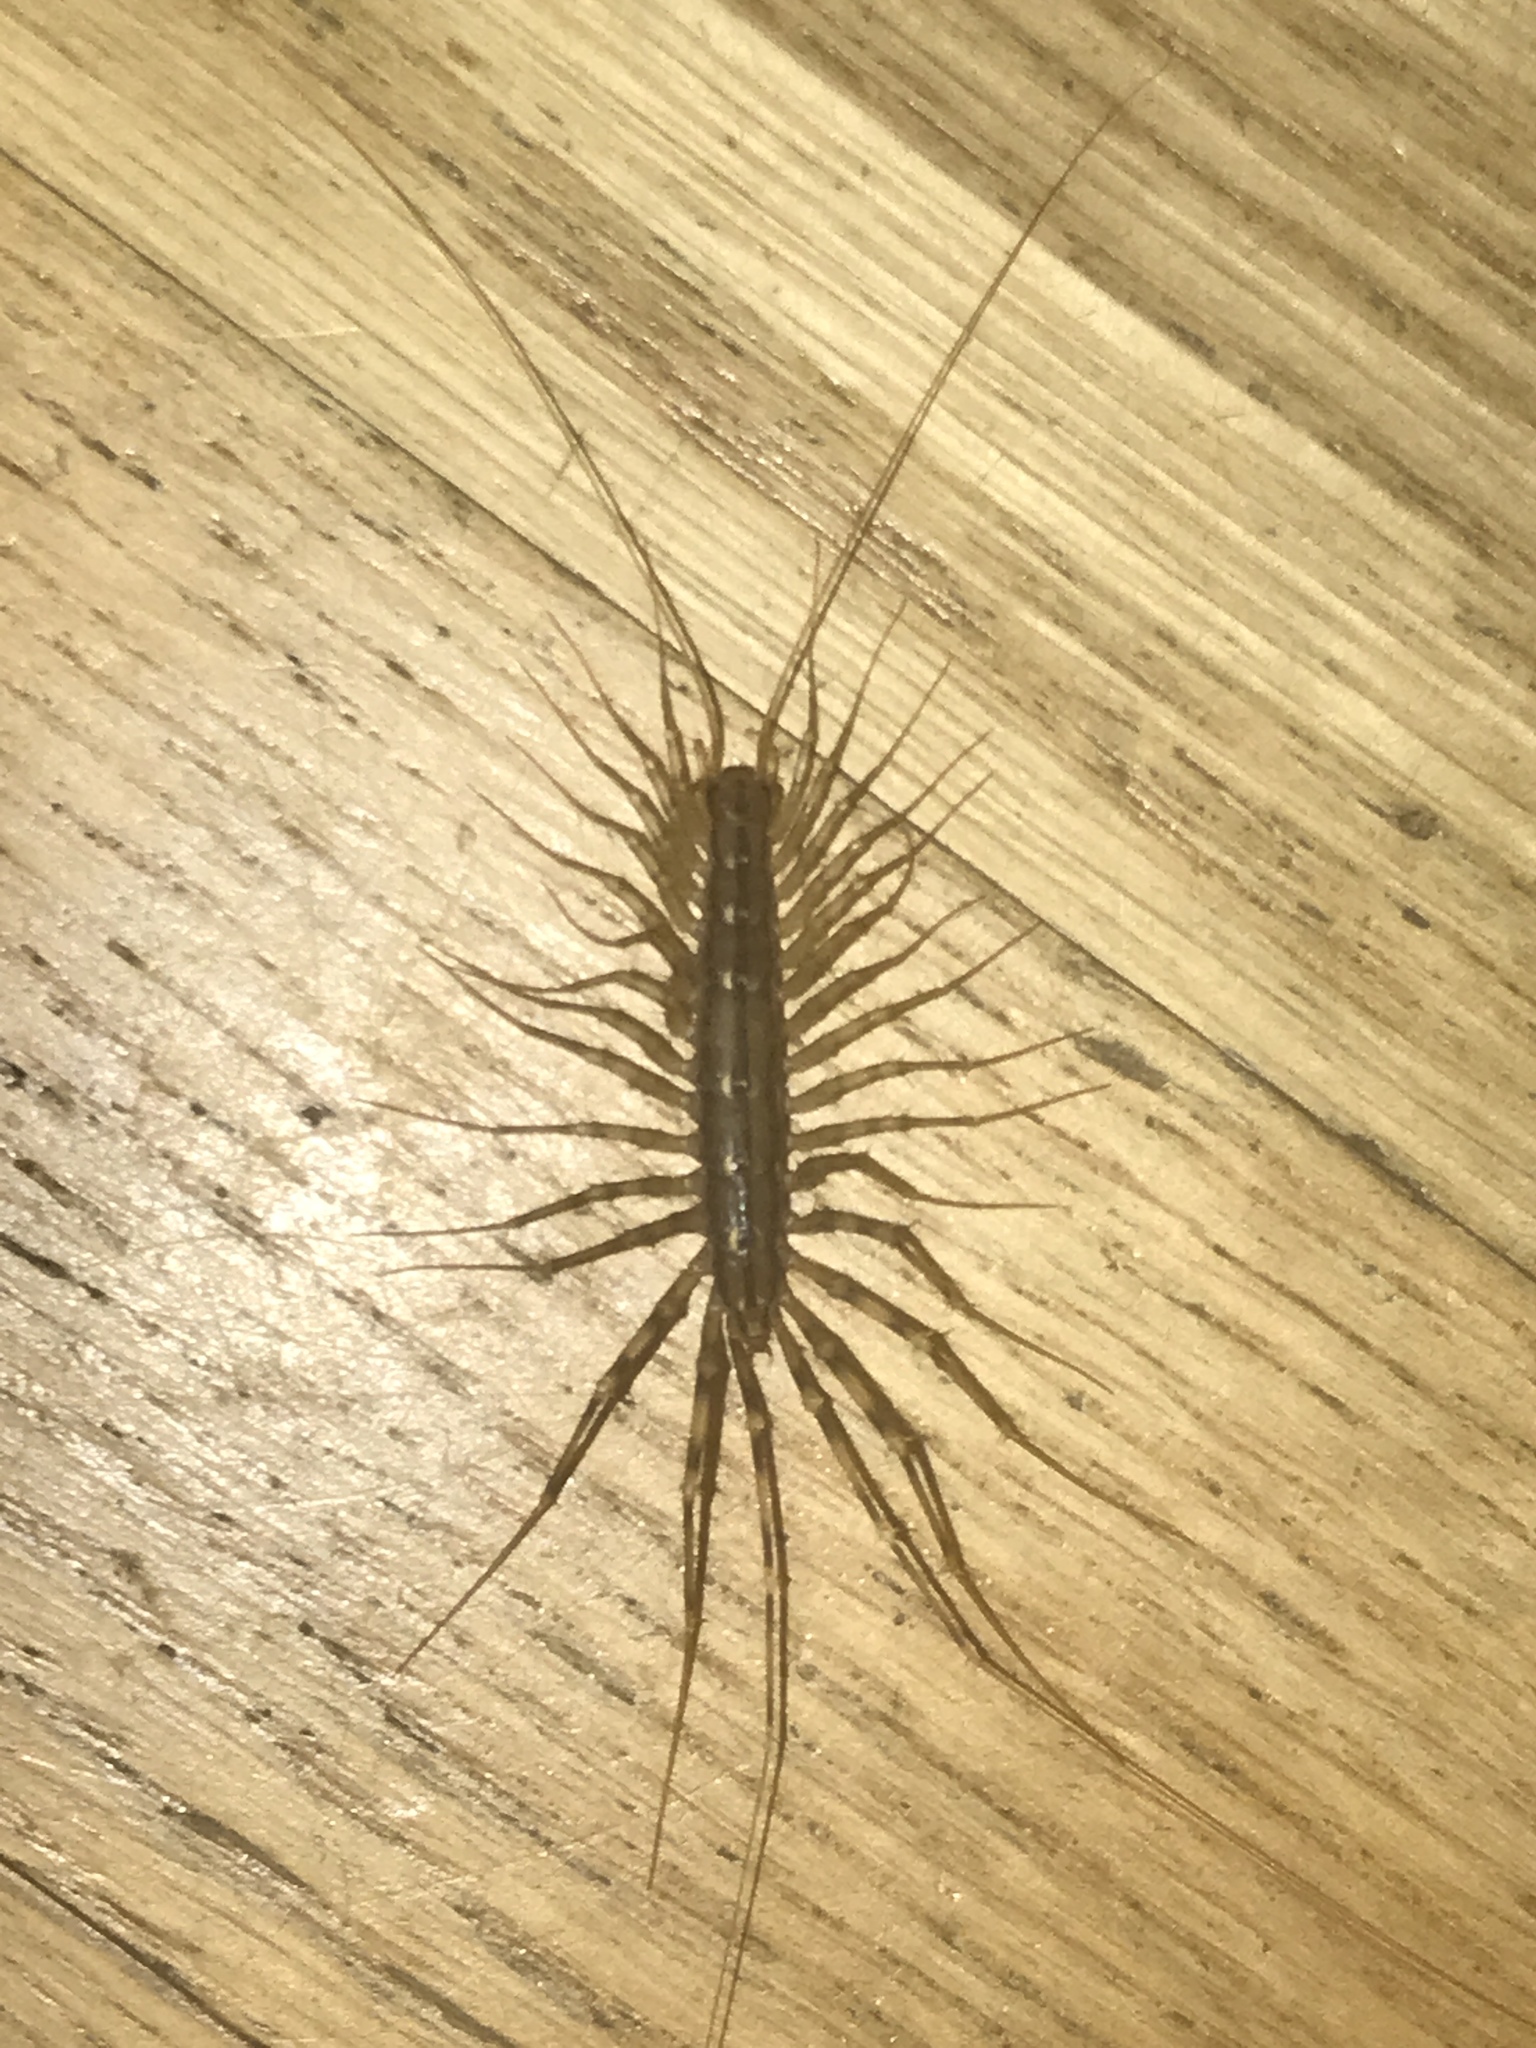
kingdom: Animalia
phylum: Arthropoda
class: Chilopoda
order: Scutigeromorpha
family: Scutigeridae
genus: Scutigera
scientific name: Scutigera coleoptrata
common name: House centipede
